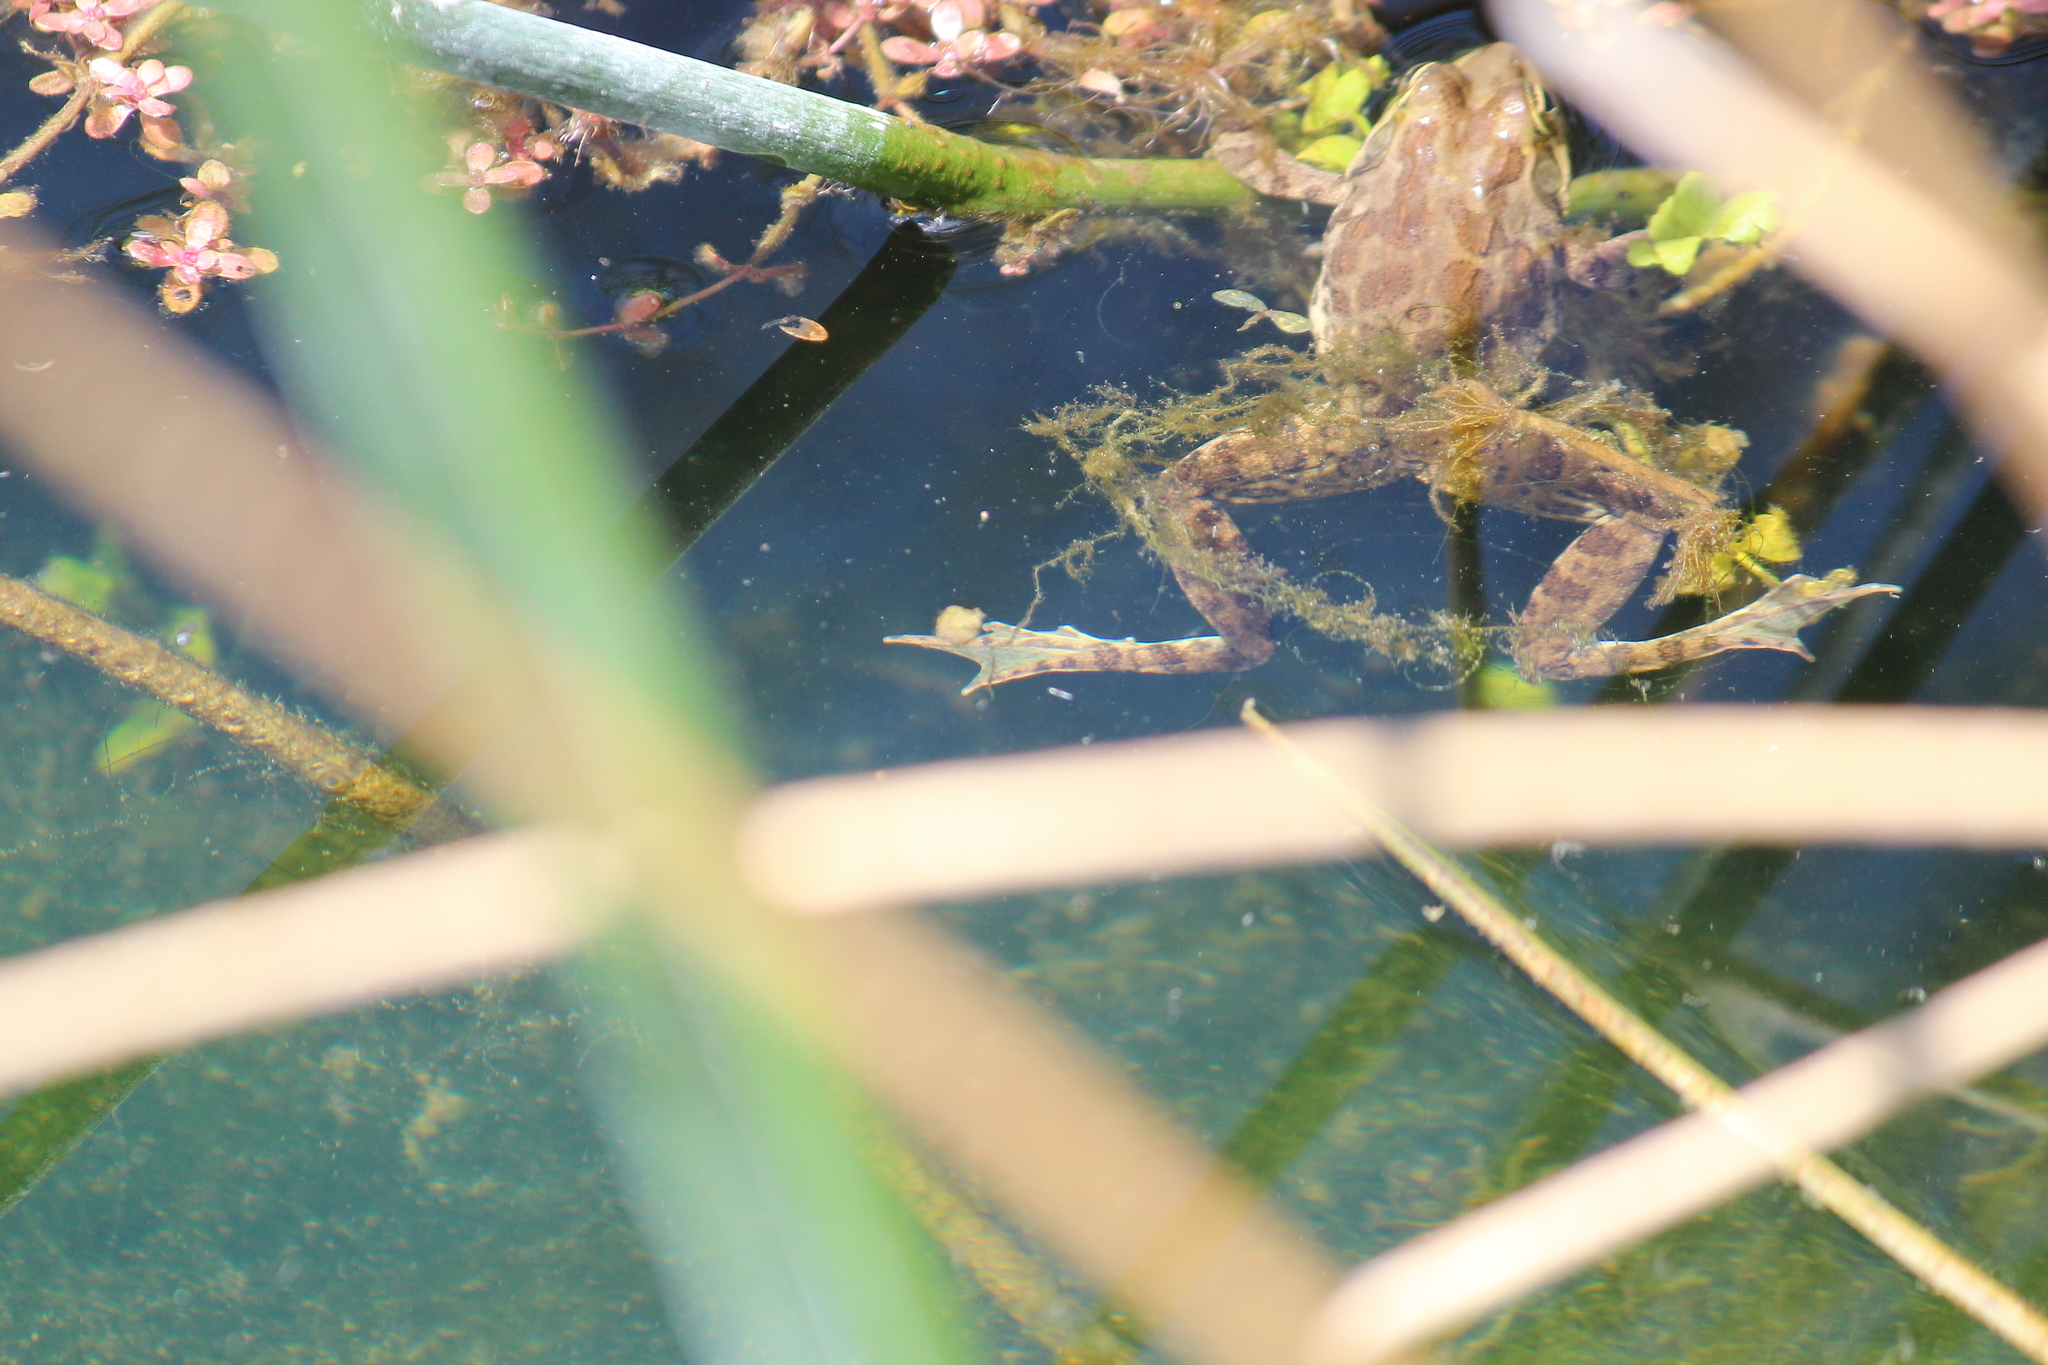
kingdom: Animalia
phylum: Chordata
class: Amphibia
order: Anura
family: Pyxicephalidae
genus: Amietia
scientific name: Amietia poyntoni
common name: Poynton's river frog
